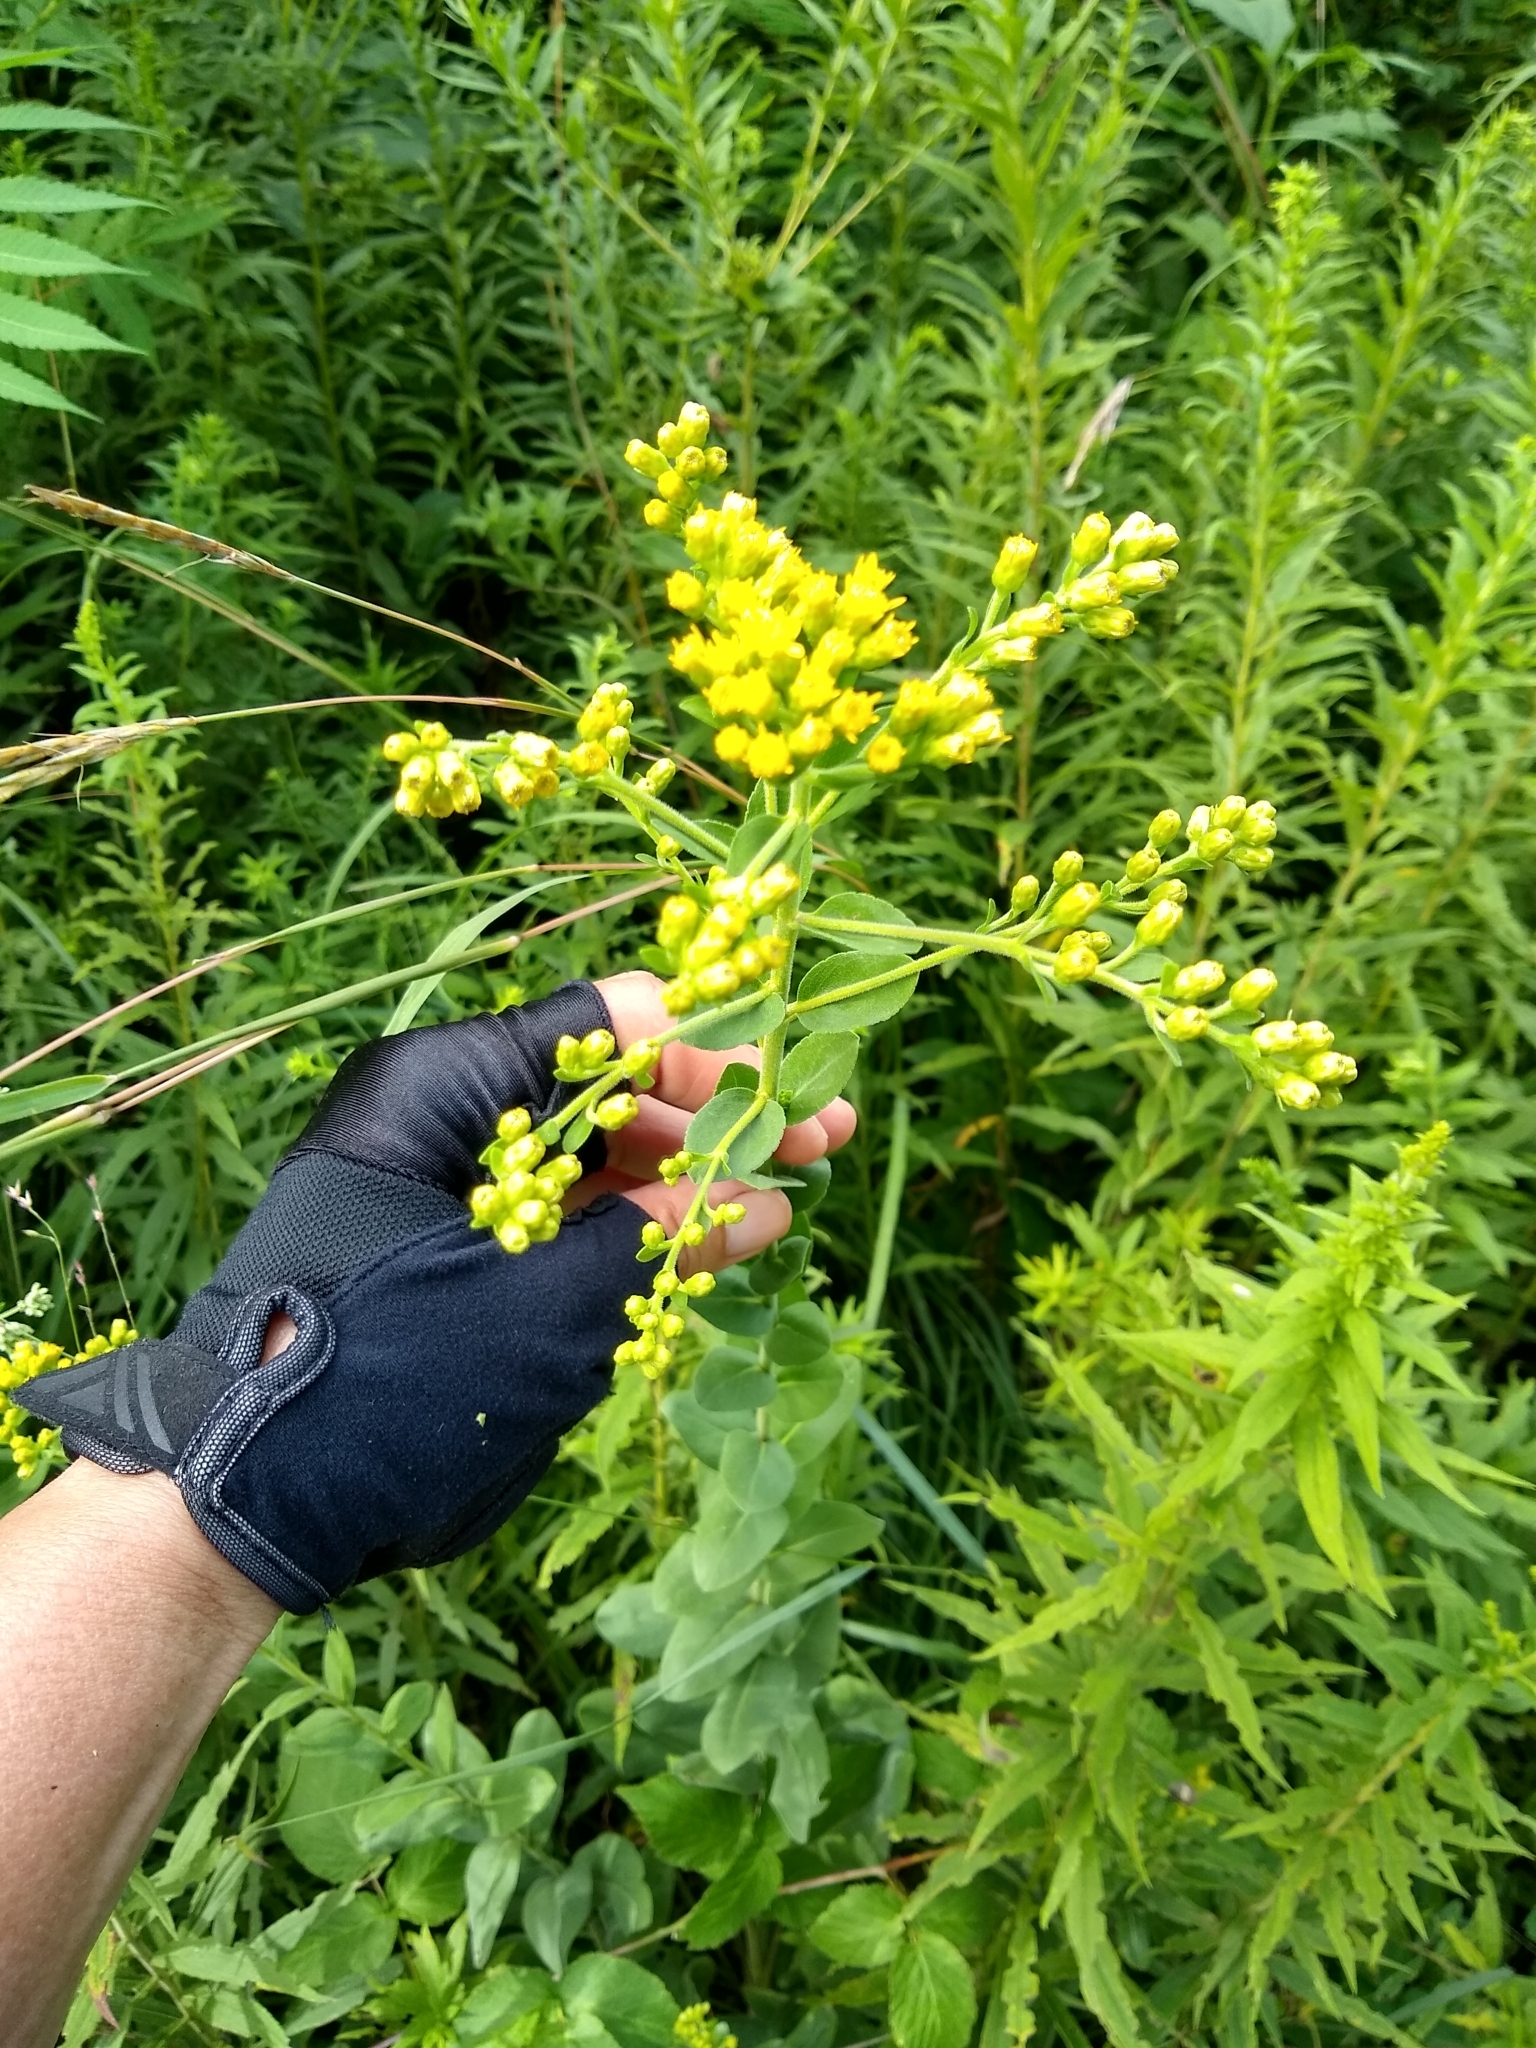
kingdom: Plantae
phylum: Tracheophyta
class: Magnoliopsida
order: Asterales
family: Asteraceae
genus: Solidago
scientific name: Solidago rigida
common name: Rigid goldenrod
